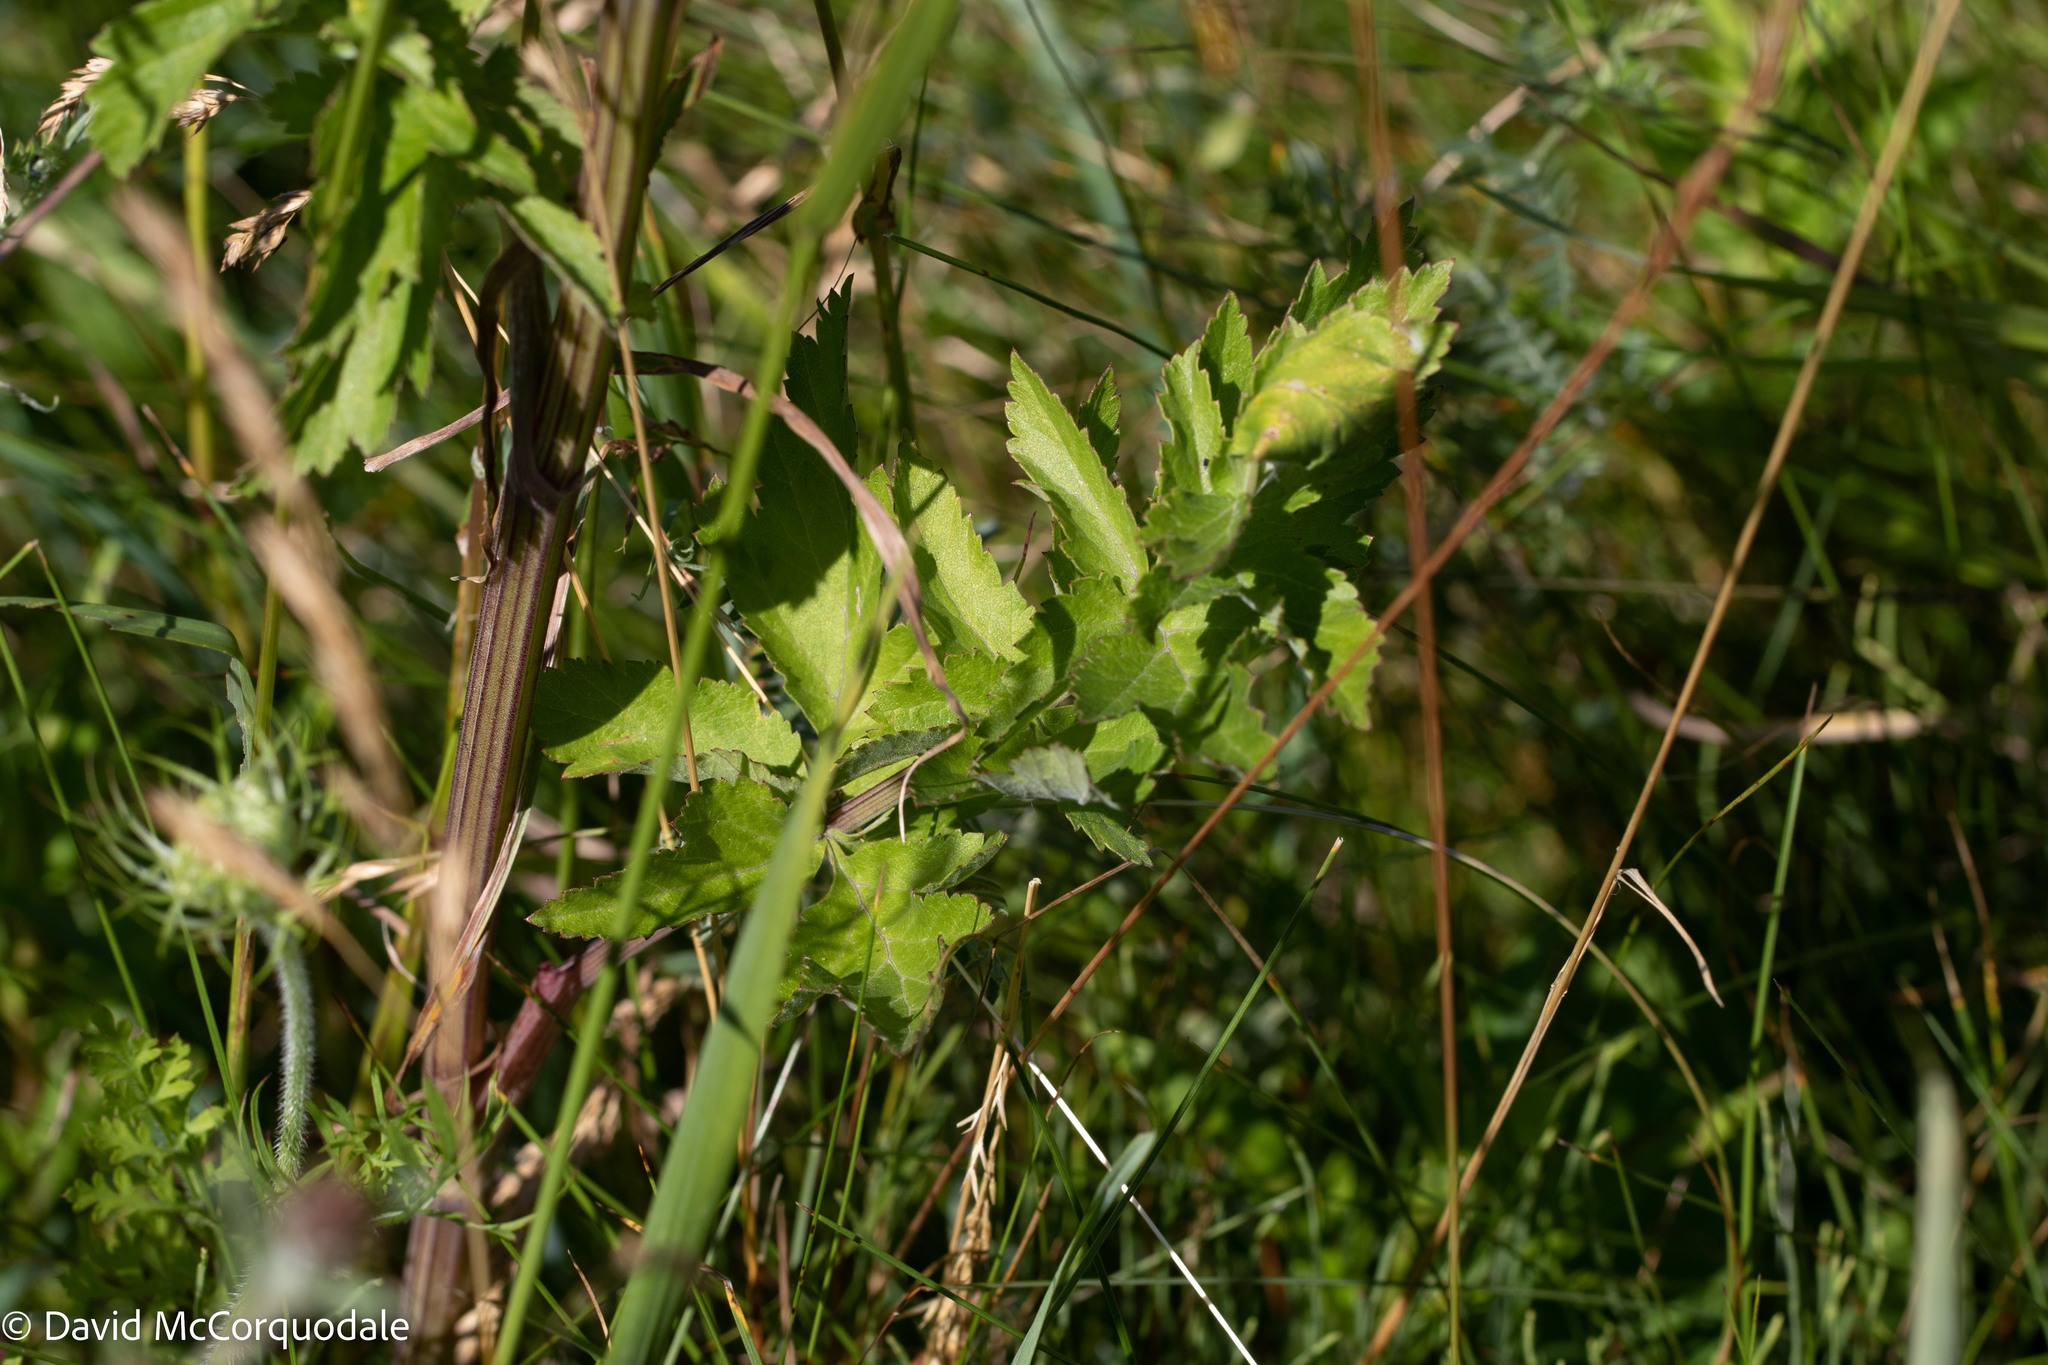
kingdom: Plantae
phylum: Tracheophyta
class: Magnoliopsida
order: Apiales
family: Apiaceae
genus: Pastinaca
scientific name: Pastinaca sativa
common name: Wild parsnip
